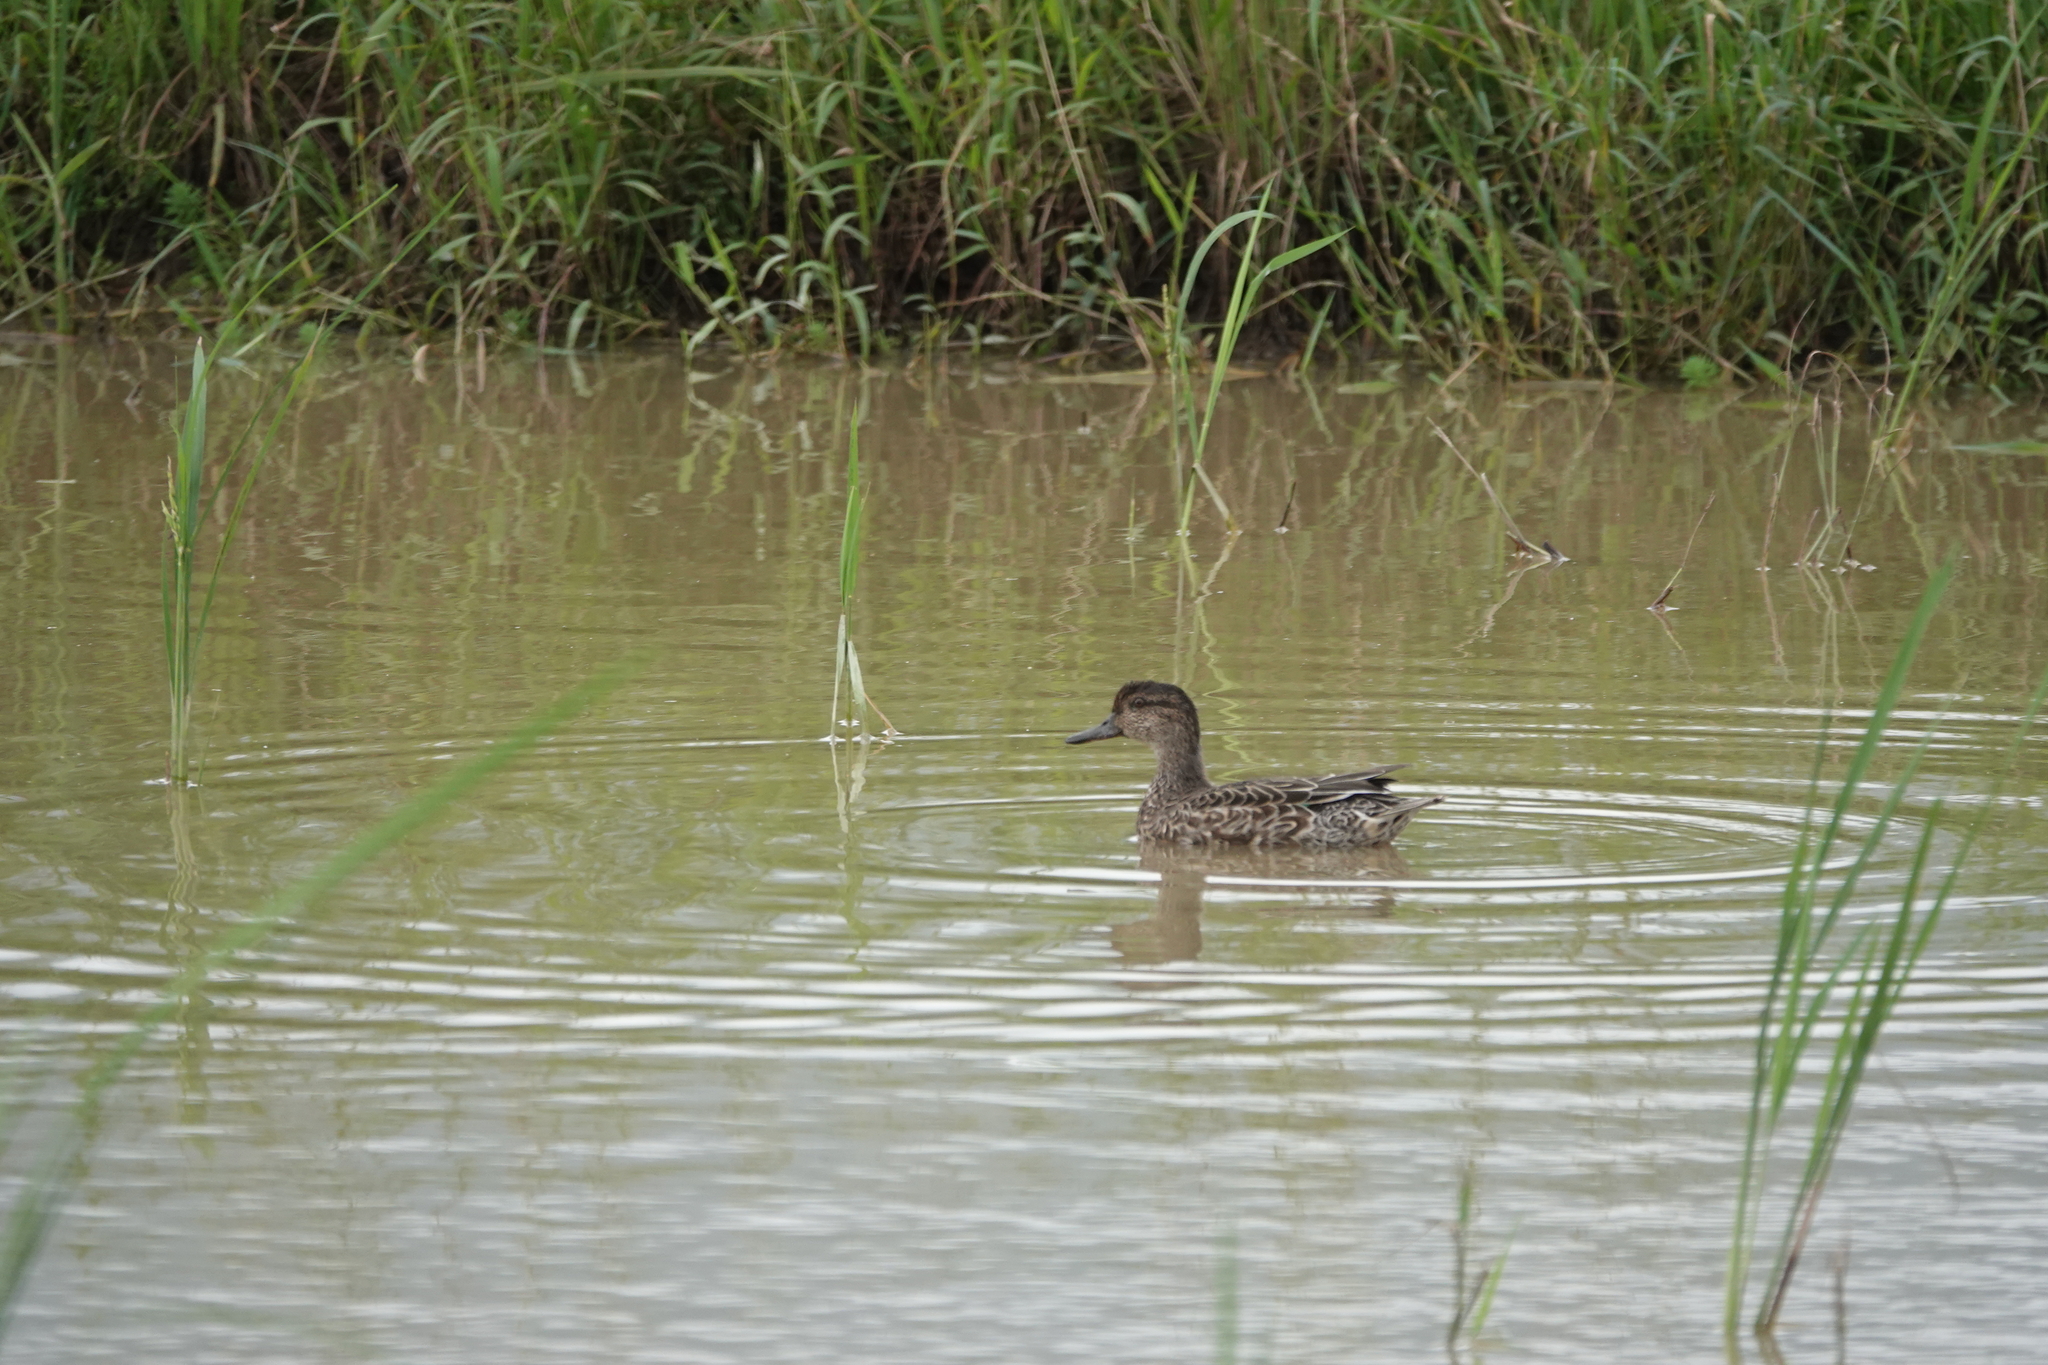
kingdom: Animalia
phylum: Chordata
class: Aves
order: Anseriformes
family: Anatidae
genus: Anas
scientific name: Anas crecca
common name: Eurasian teal
